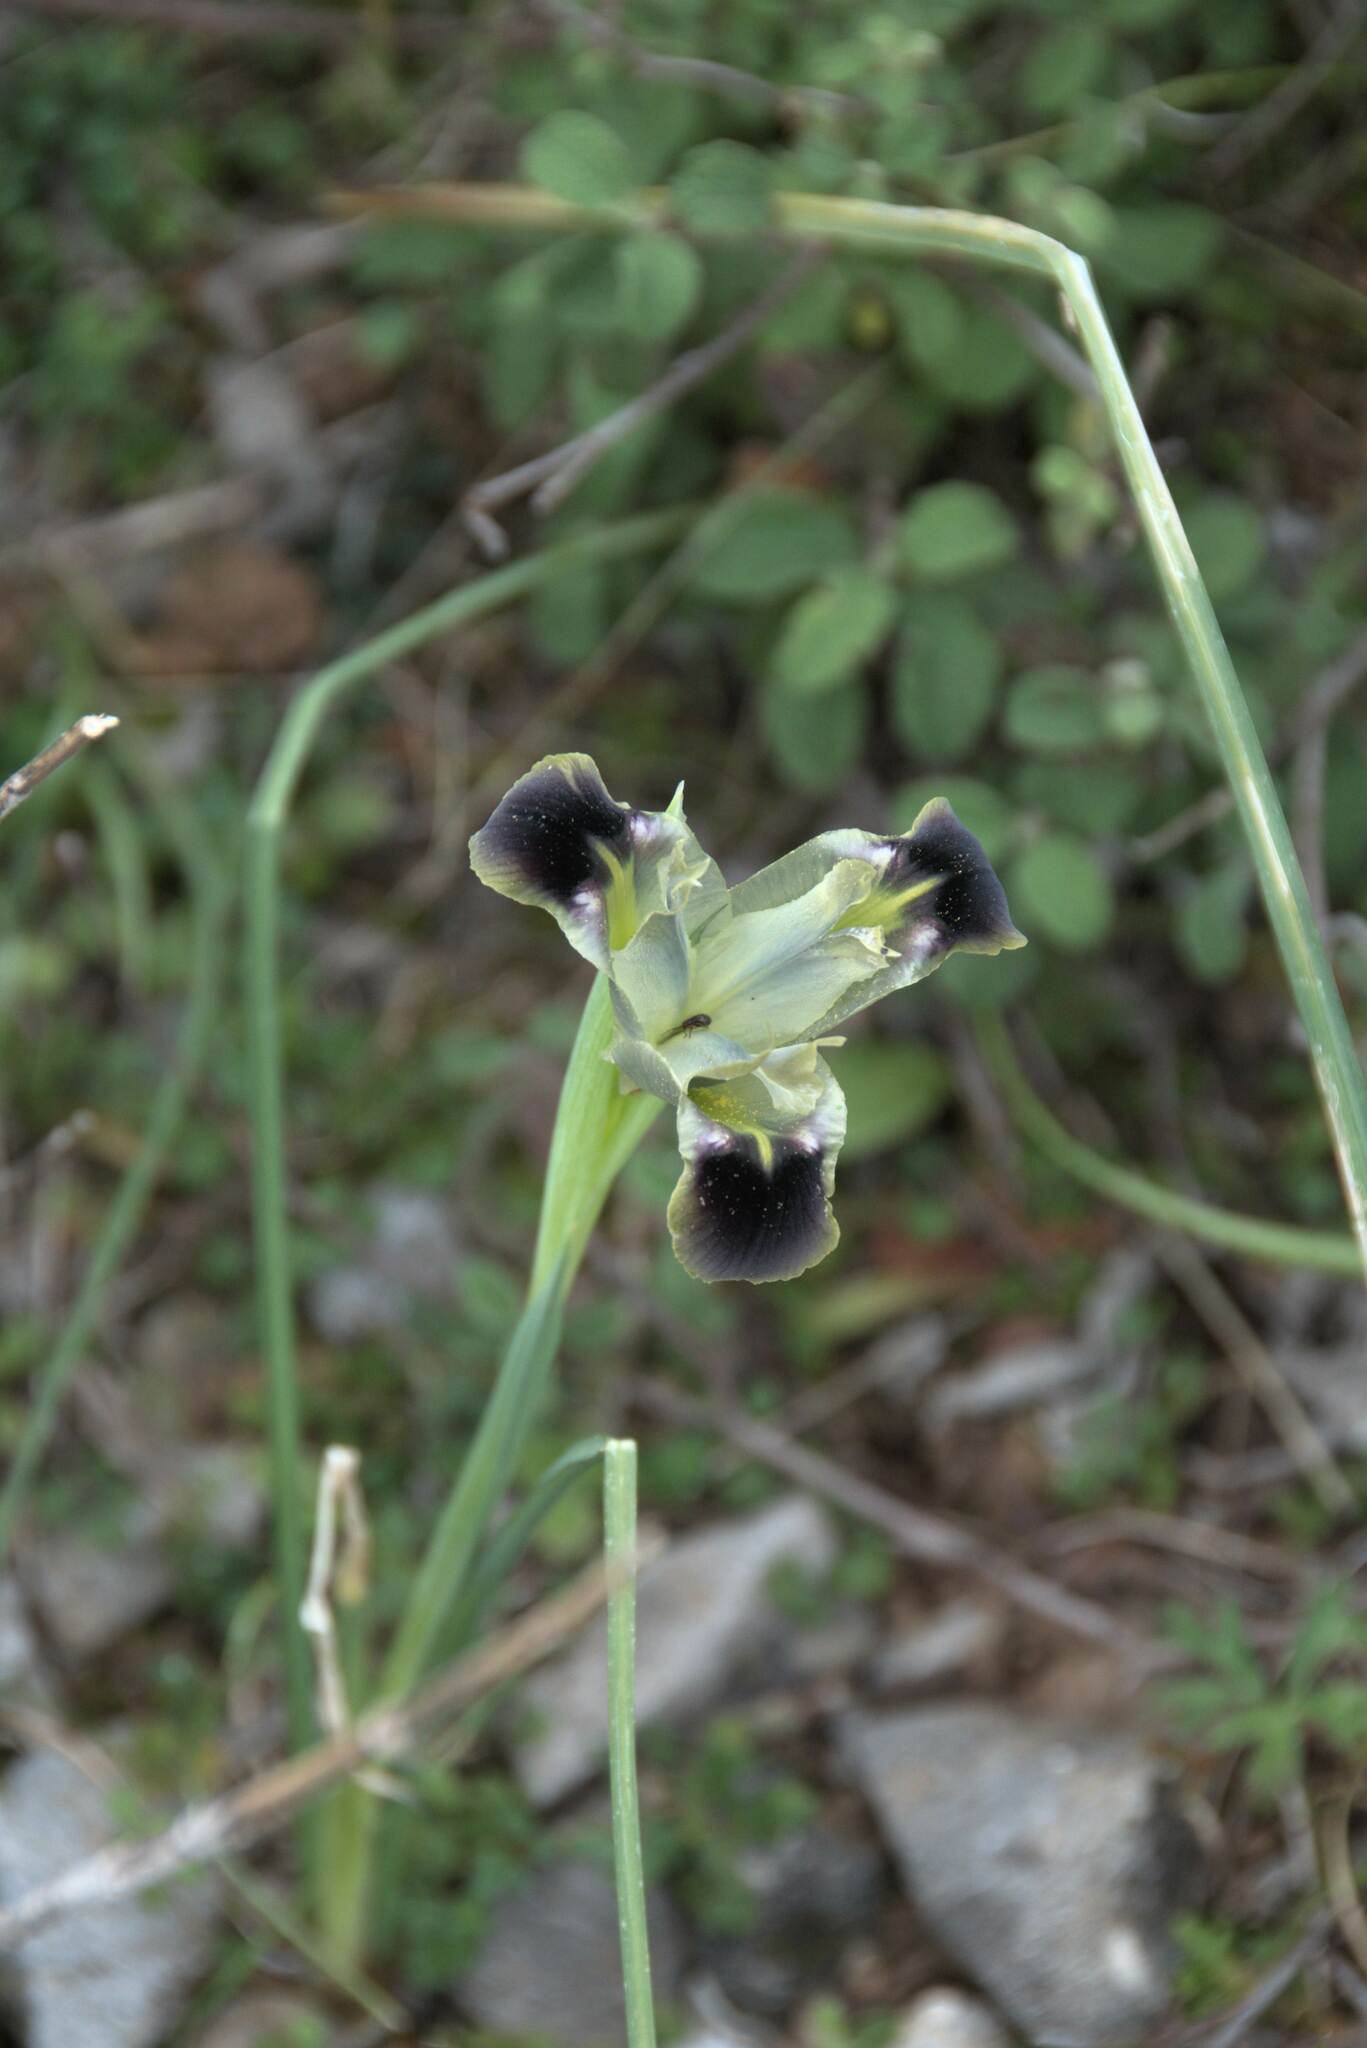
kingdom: Plantae
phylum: Tracheophyta
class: Liliopsida
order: Asparagales
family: Iridaceae
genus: Iris
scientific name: Iris tuberosa
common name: Snake's-head iris
